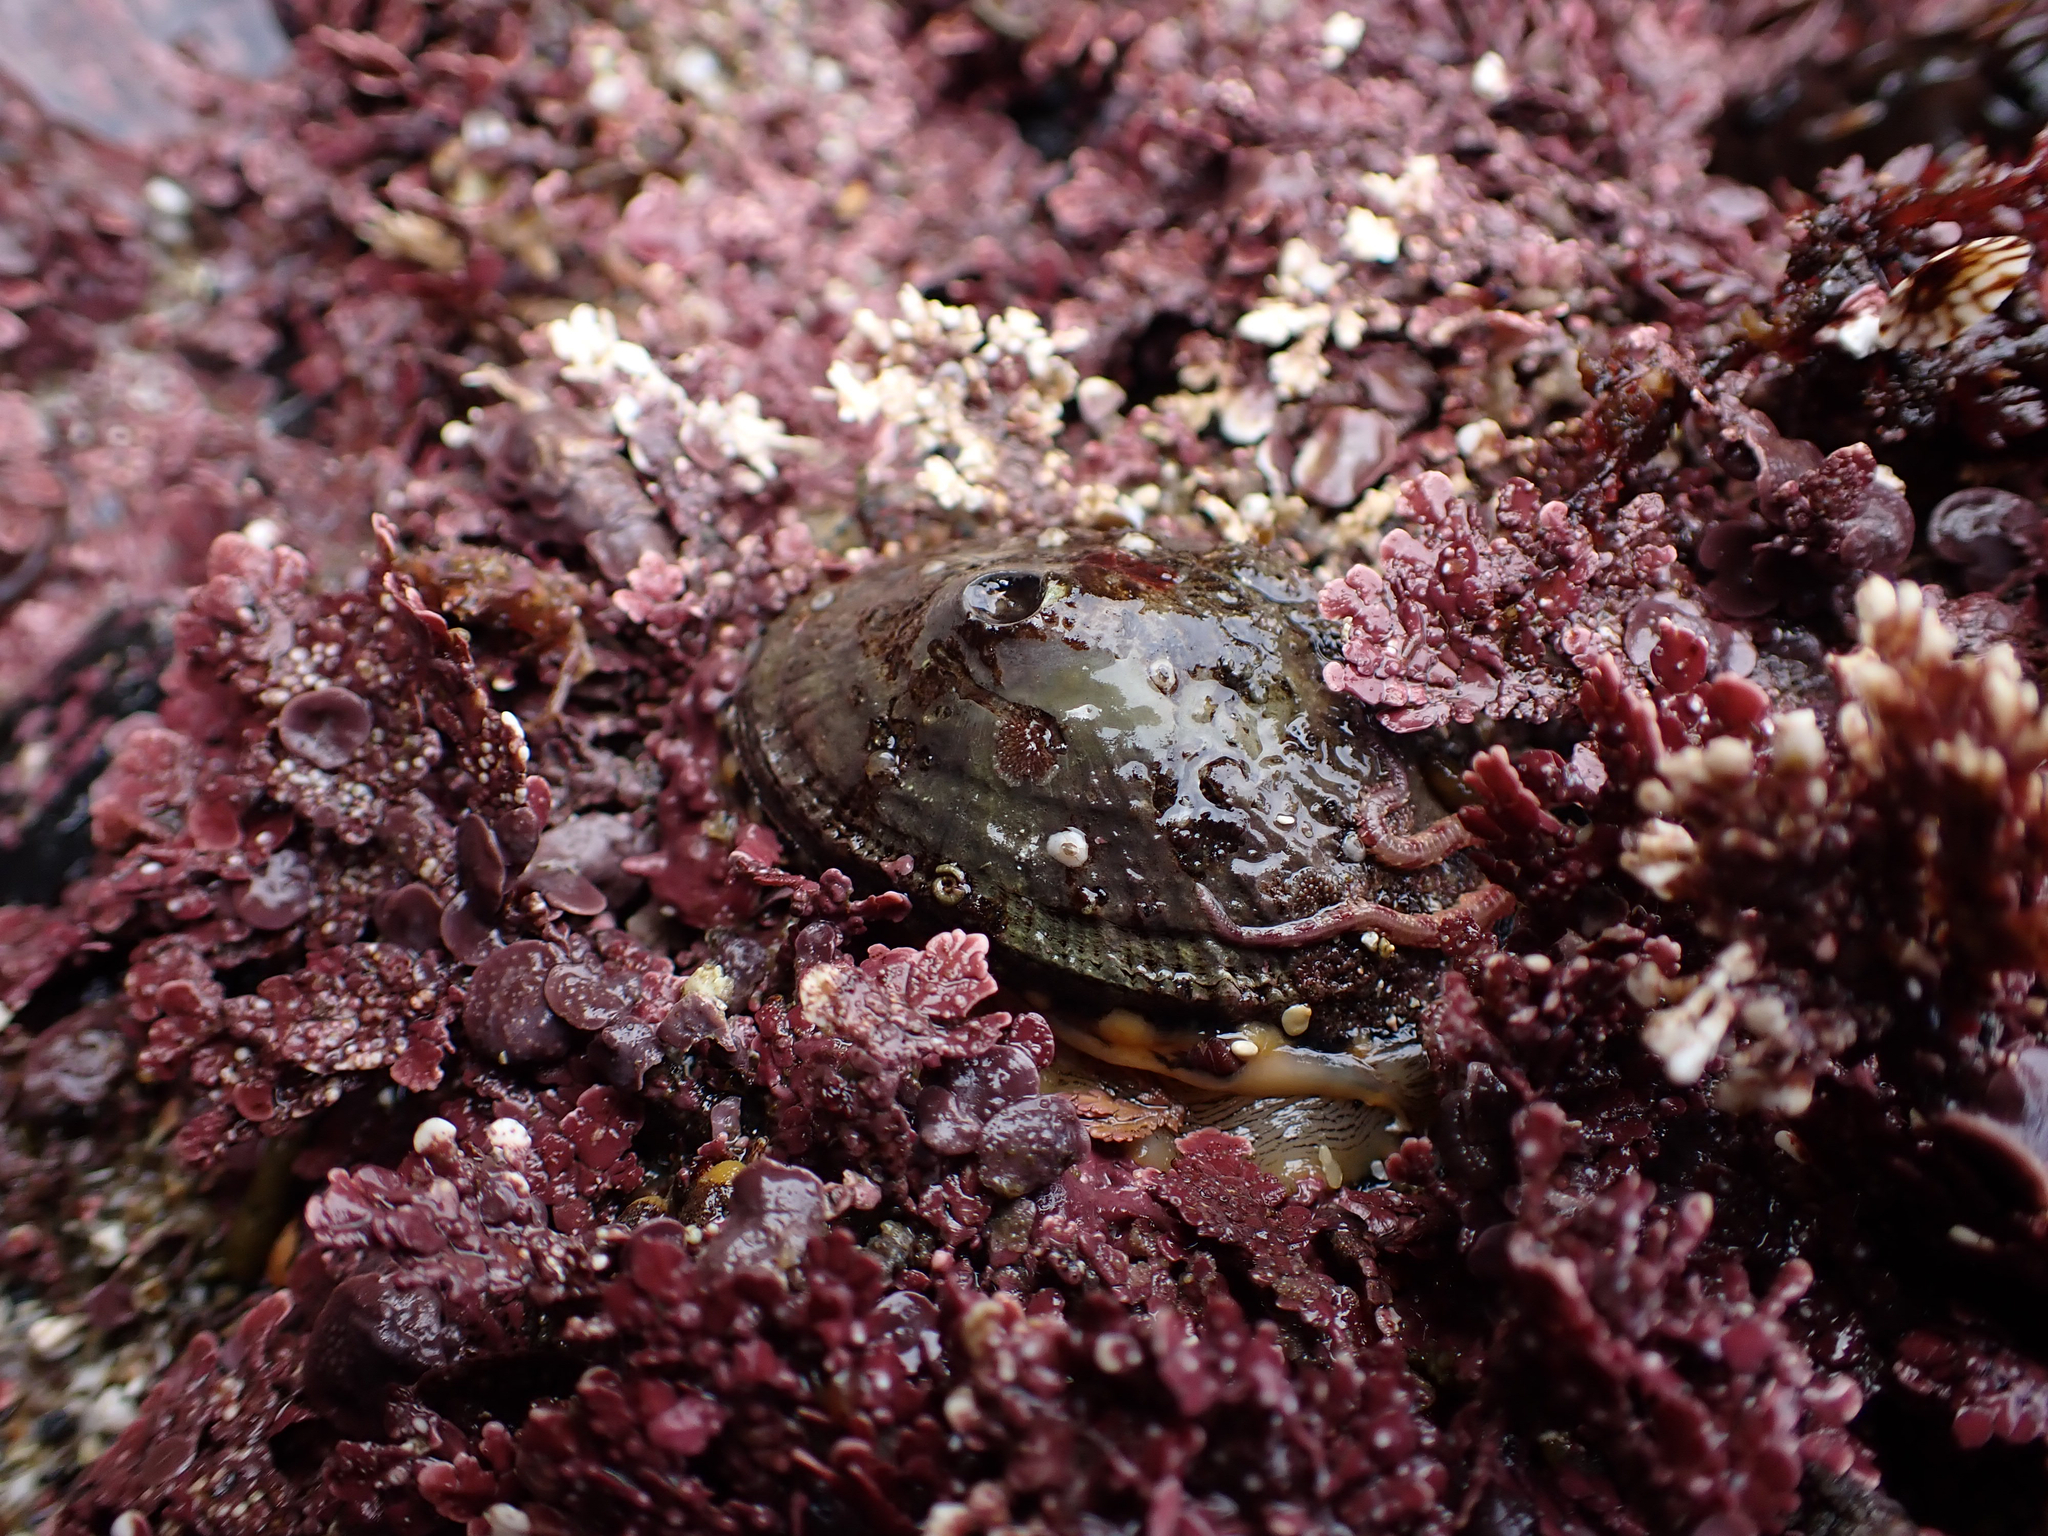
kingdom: Animalia
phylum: Mollusca
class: Gastropoda
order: Lepetellida
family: Fissurellidae
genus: Diodora
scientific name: Diodora aspera
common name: Rough keyhole limpet
